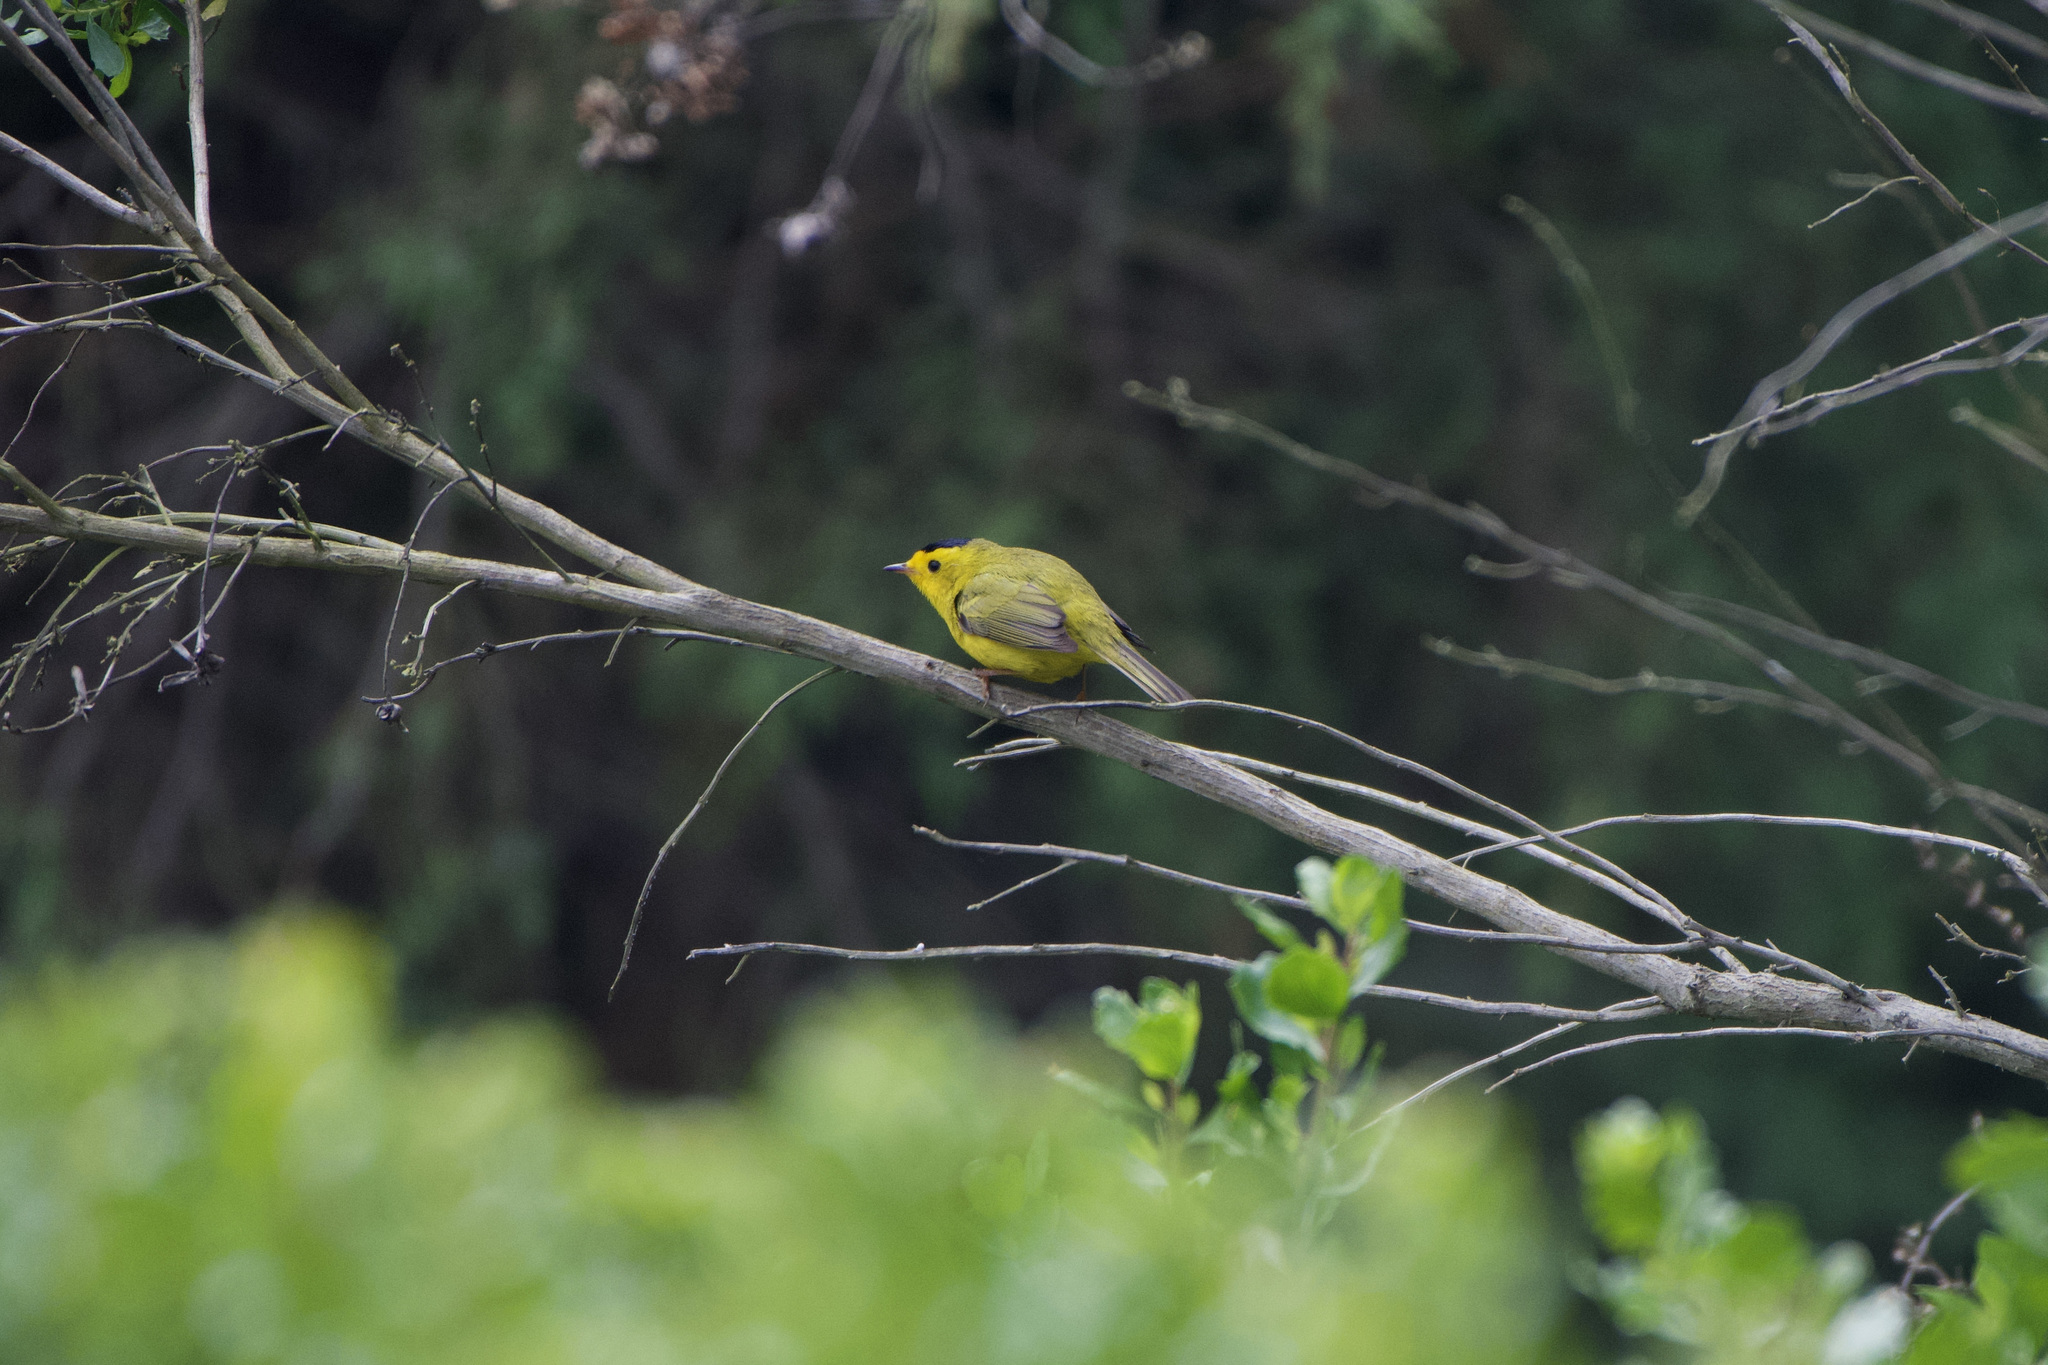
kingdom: Animalia
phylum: Chordata
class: Aves
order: Passeriformes
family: Parulidae
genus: Cardellina
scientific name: Cardellina pusilla
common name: Wilson's warbler
